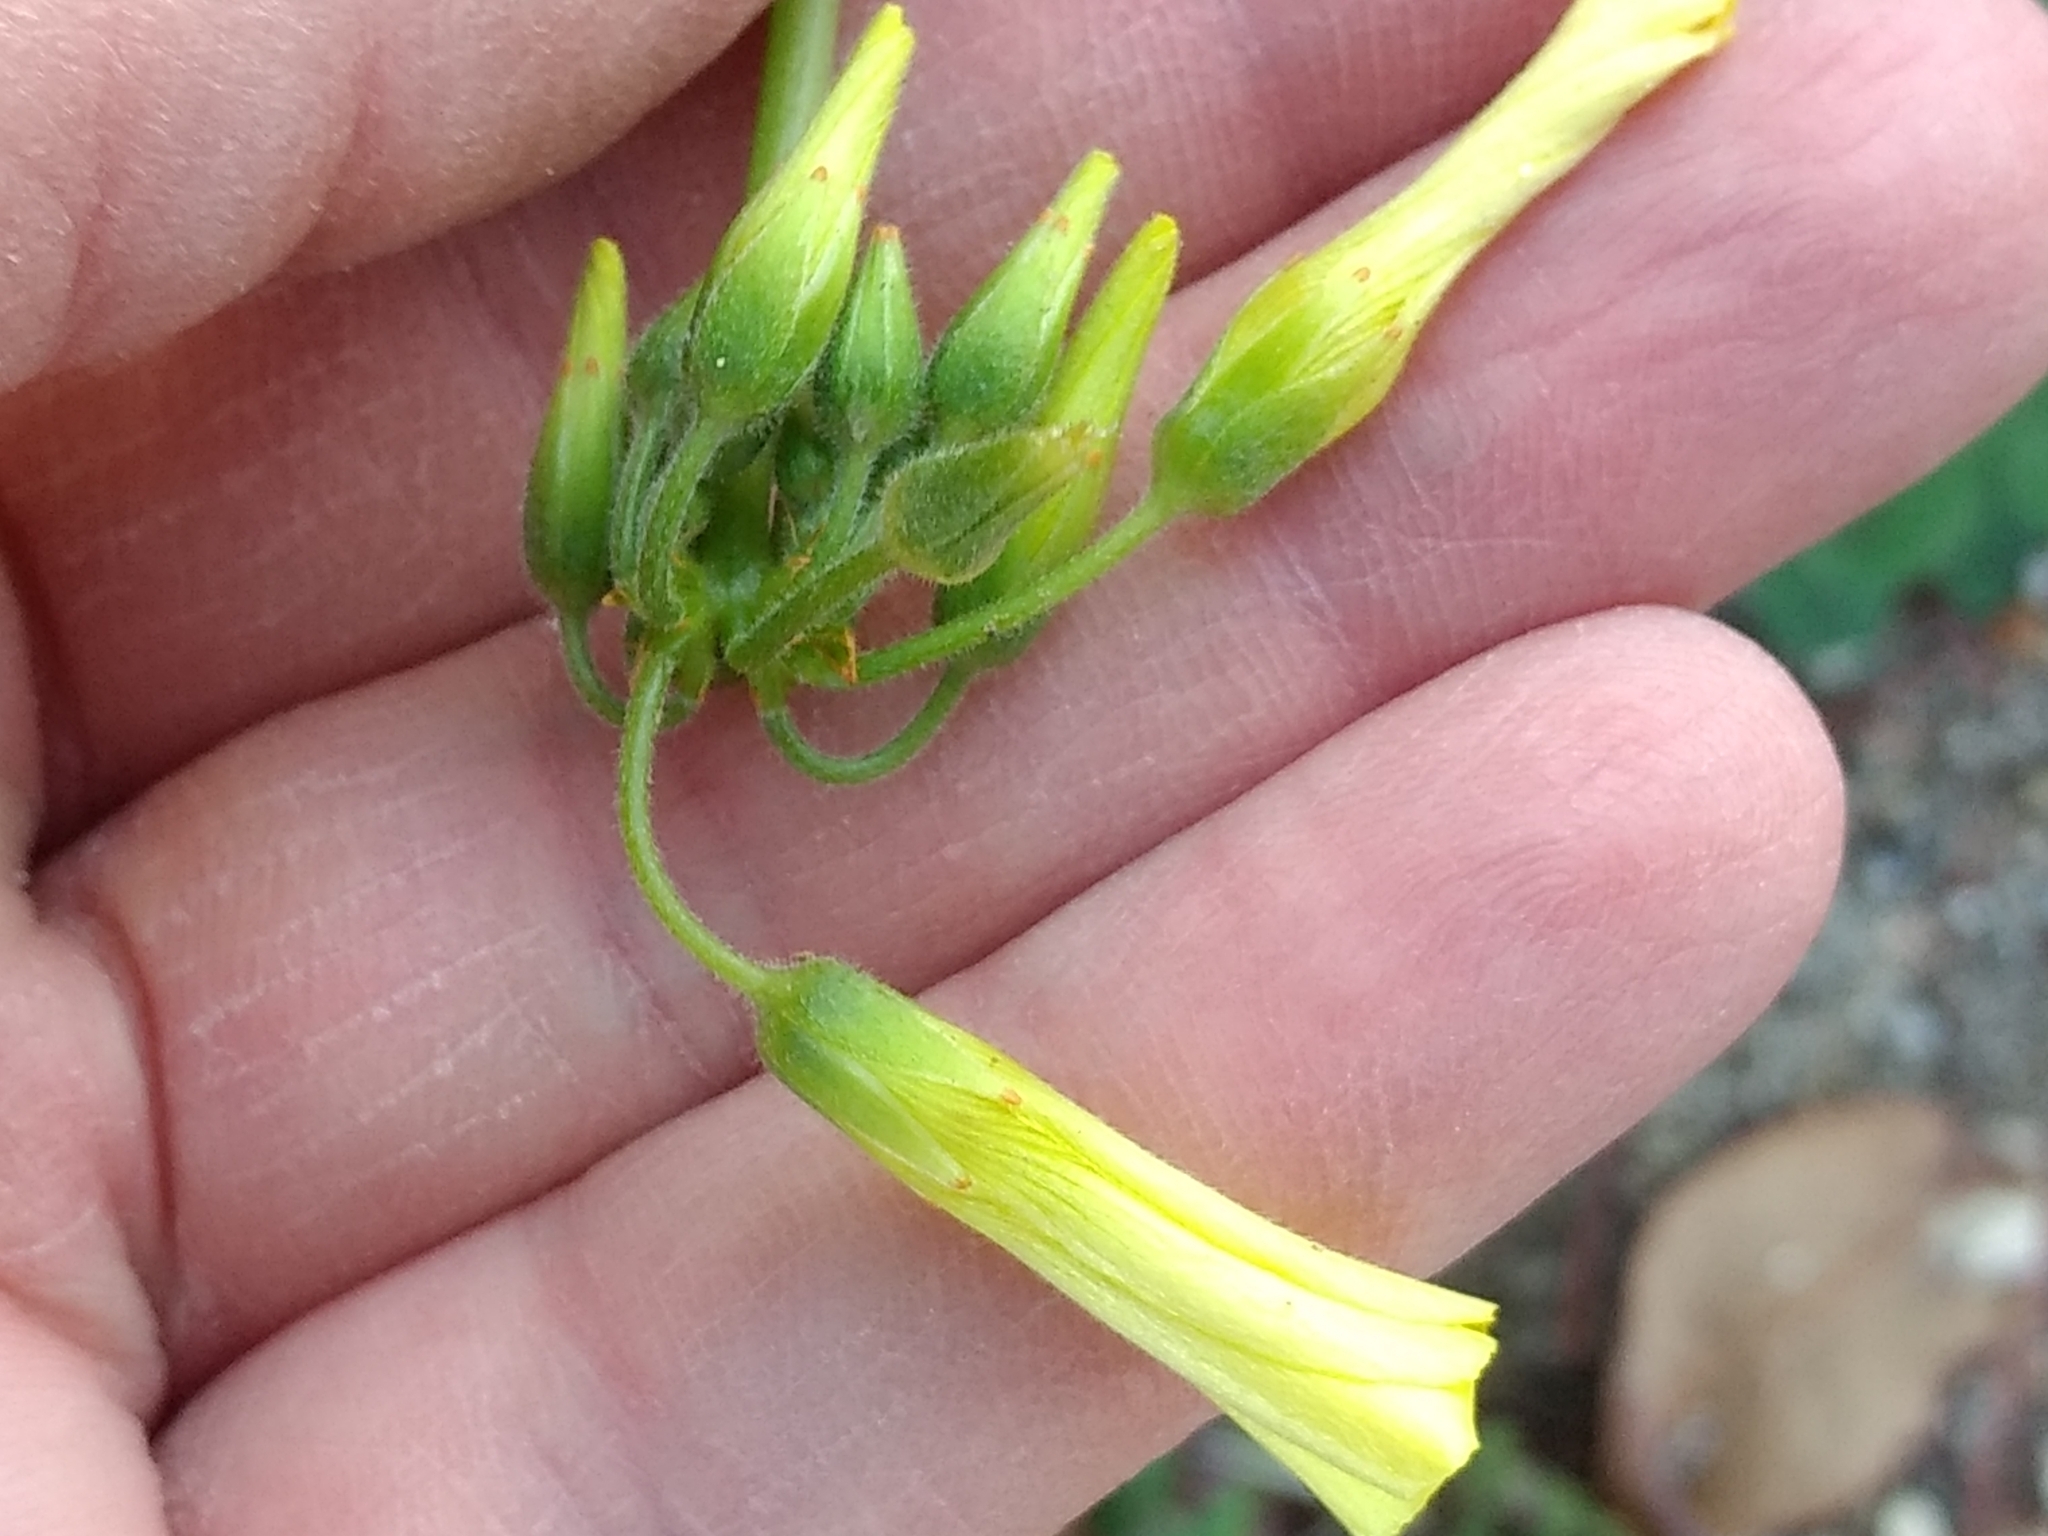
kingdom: Plantae
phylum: Tracheophyta
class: Magnoliopsida
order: Oxalidales
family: Oxalidaceae
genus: Oxalis
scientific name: Oxalis pes-caprae
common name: Bermuda-buttercup
